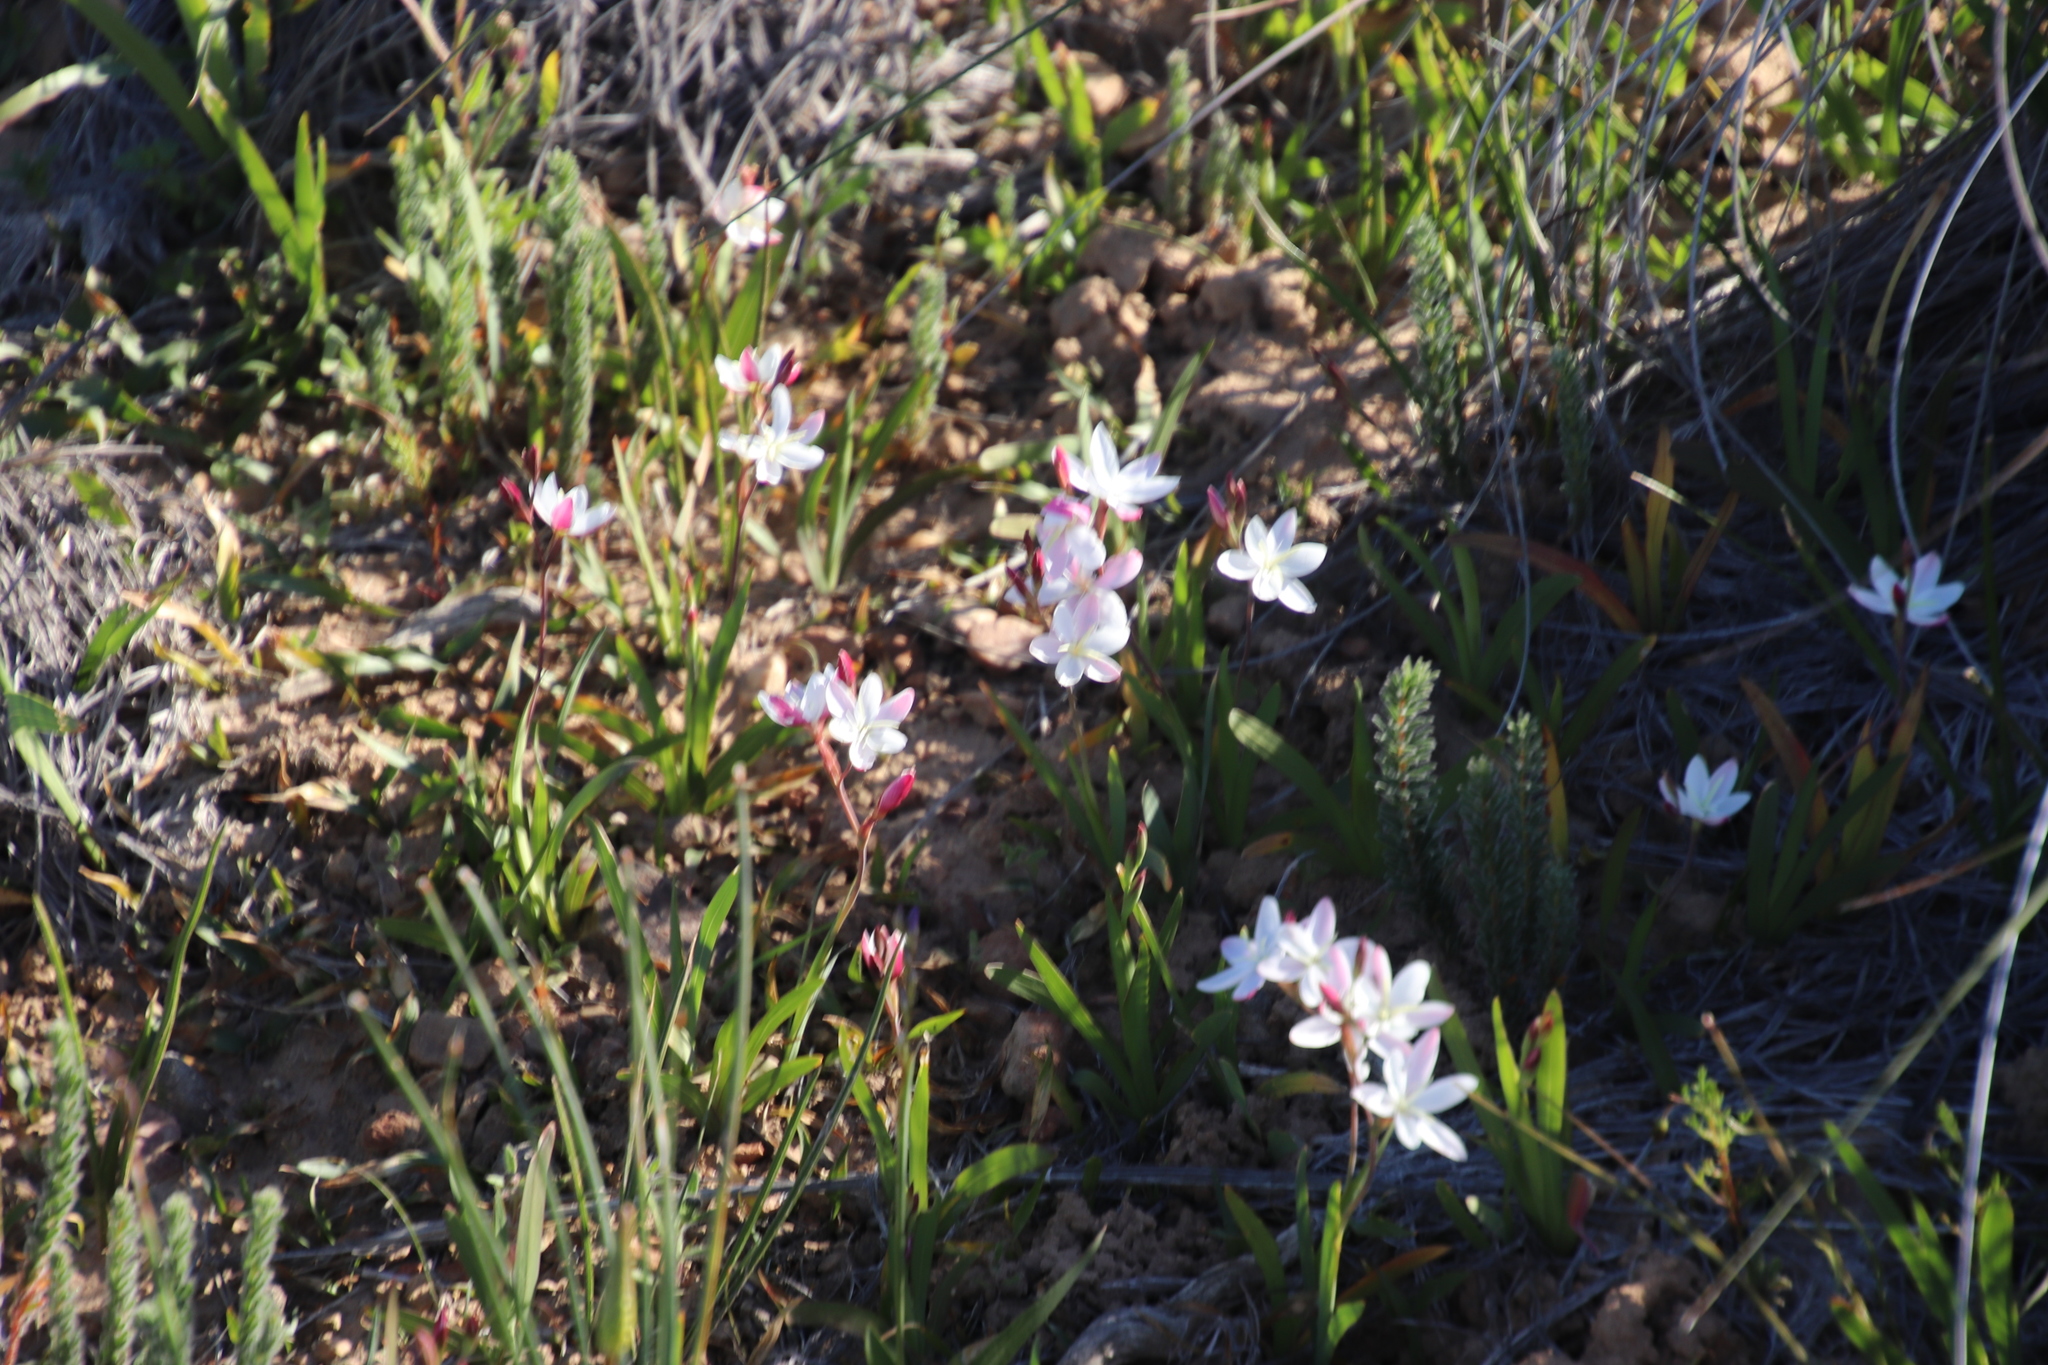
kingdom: Plantae
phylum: Tracheophyta
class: Liliopsida
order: Asparagales
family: Iridaceae
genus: Hesperantha
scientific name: Hesperantha cucullata
